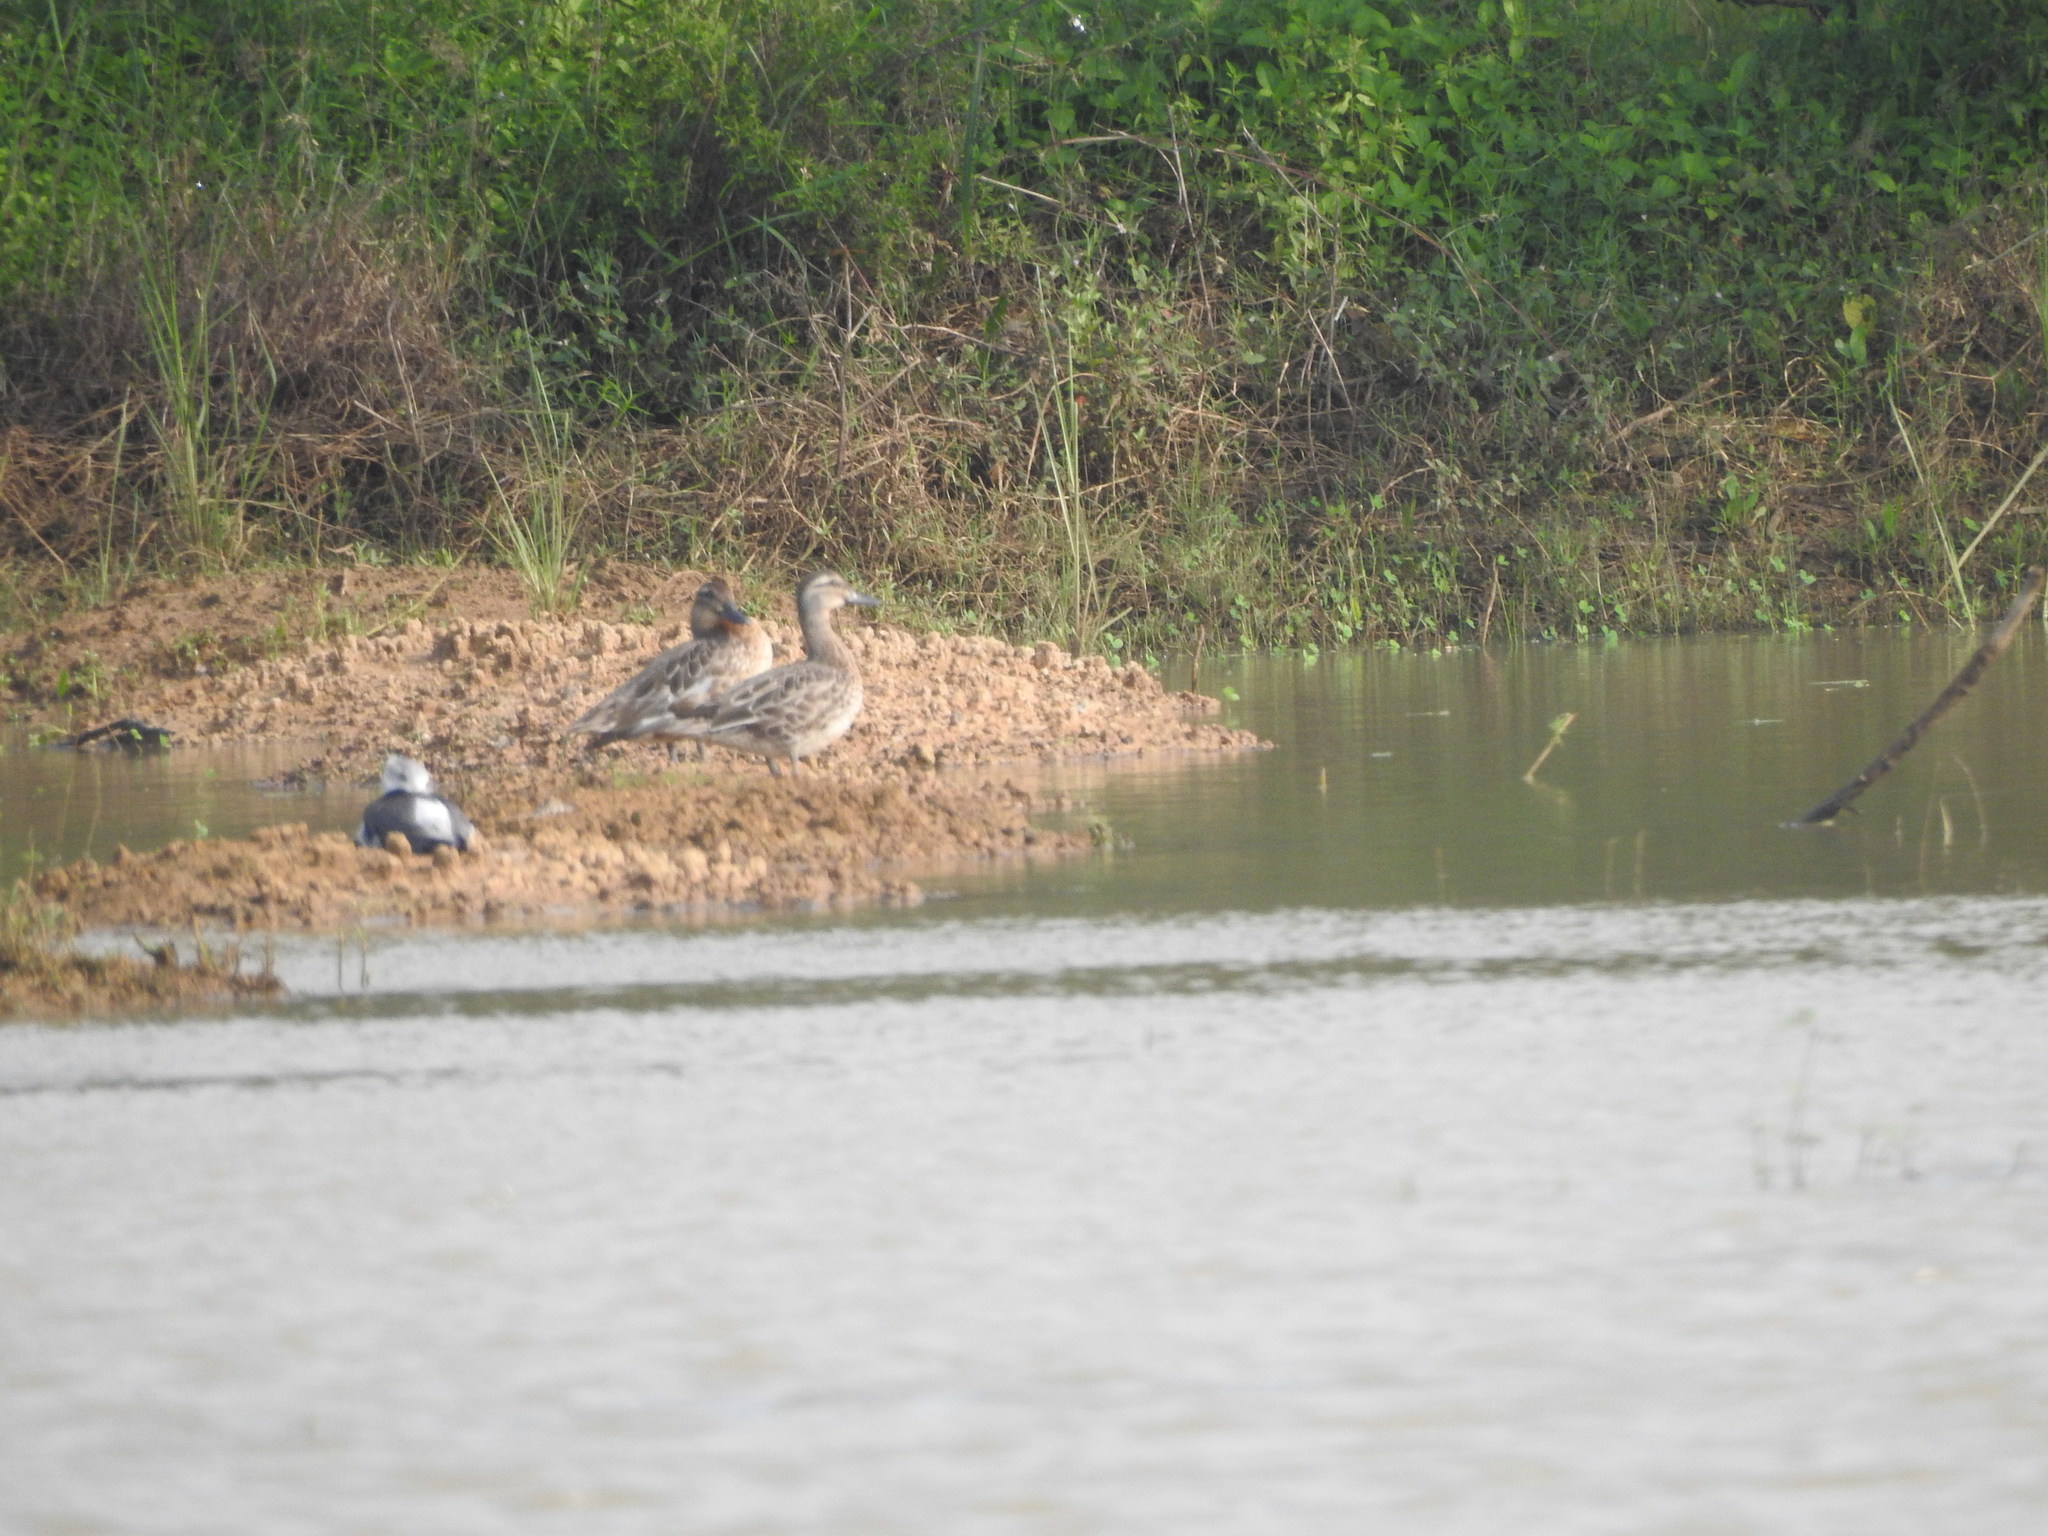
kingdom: Animalia
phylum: Chordata
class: Aves
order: Charadriiformes
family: Recurvirostridae
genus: Himantopus
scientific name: Himantopus himantopus
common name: Black-winged stilt
